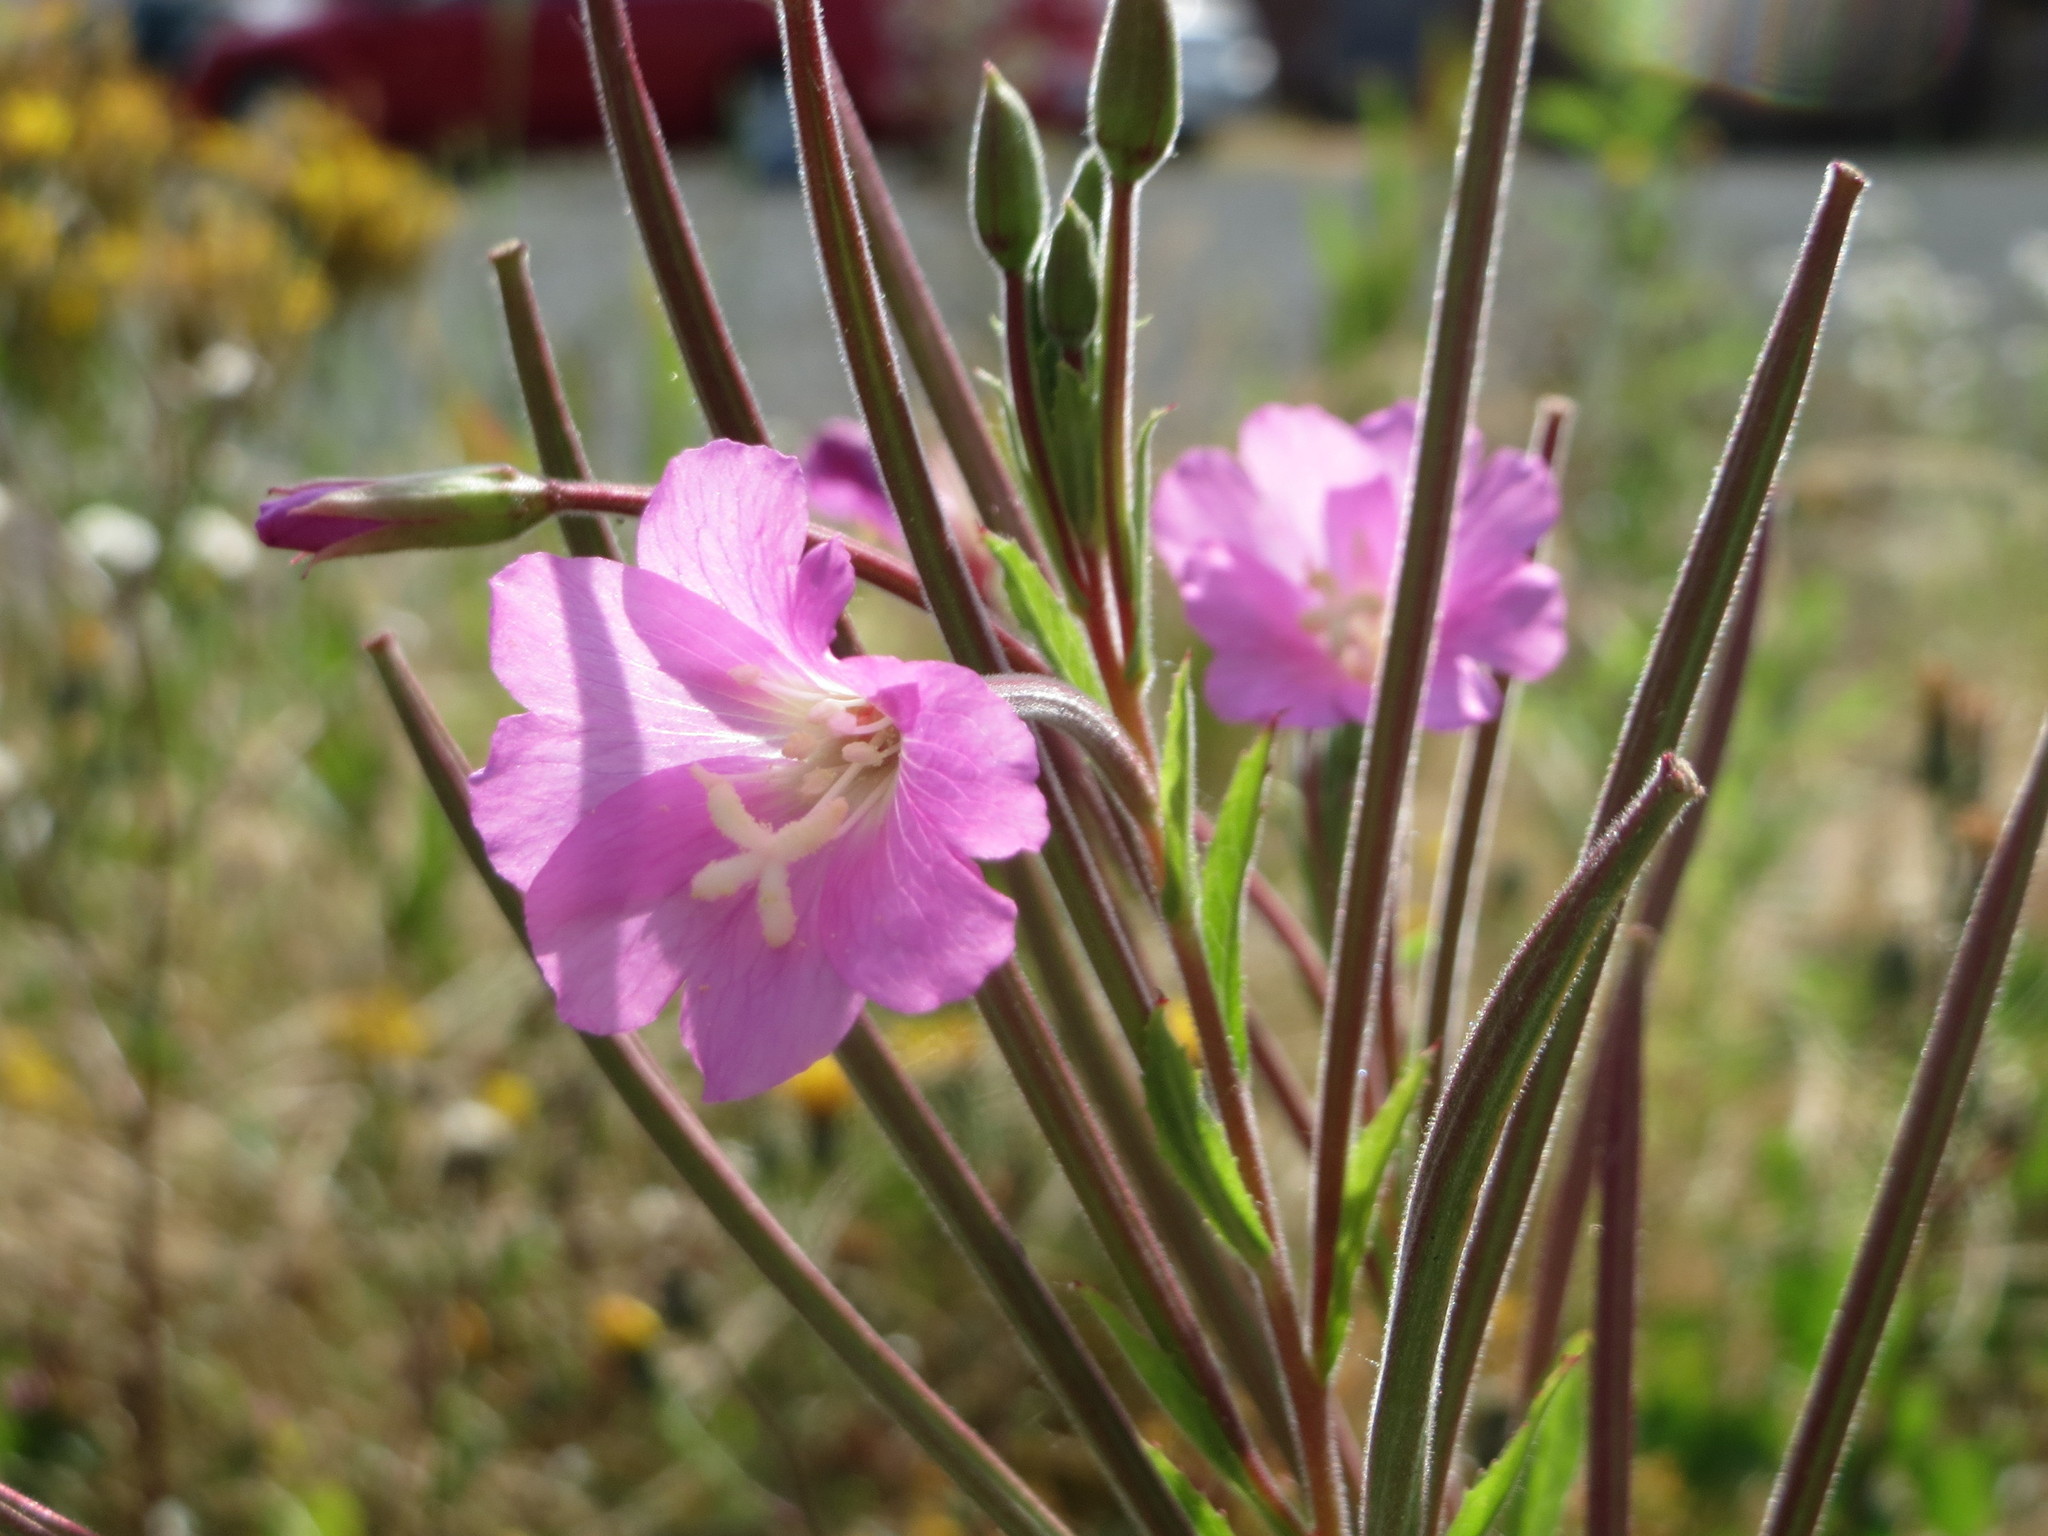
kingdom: Plantae
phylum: Tracheophyta
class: Magnoliopsida
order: Myrtales
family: Onagraceae
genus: Epilobium
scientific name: Epilobium hirsutum
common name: Great willowherb
